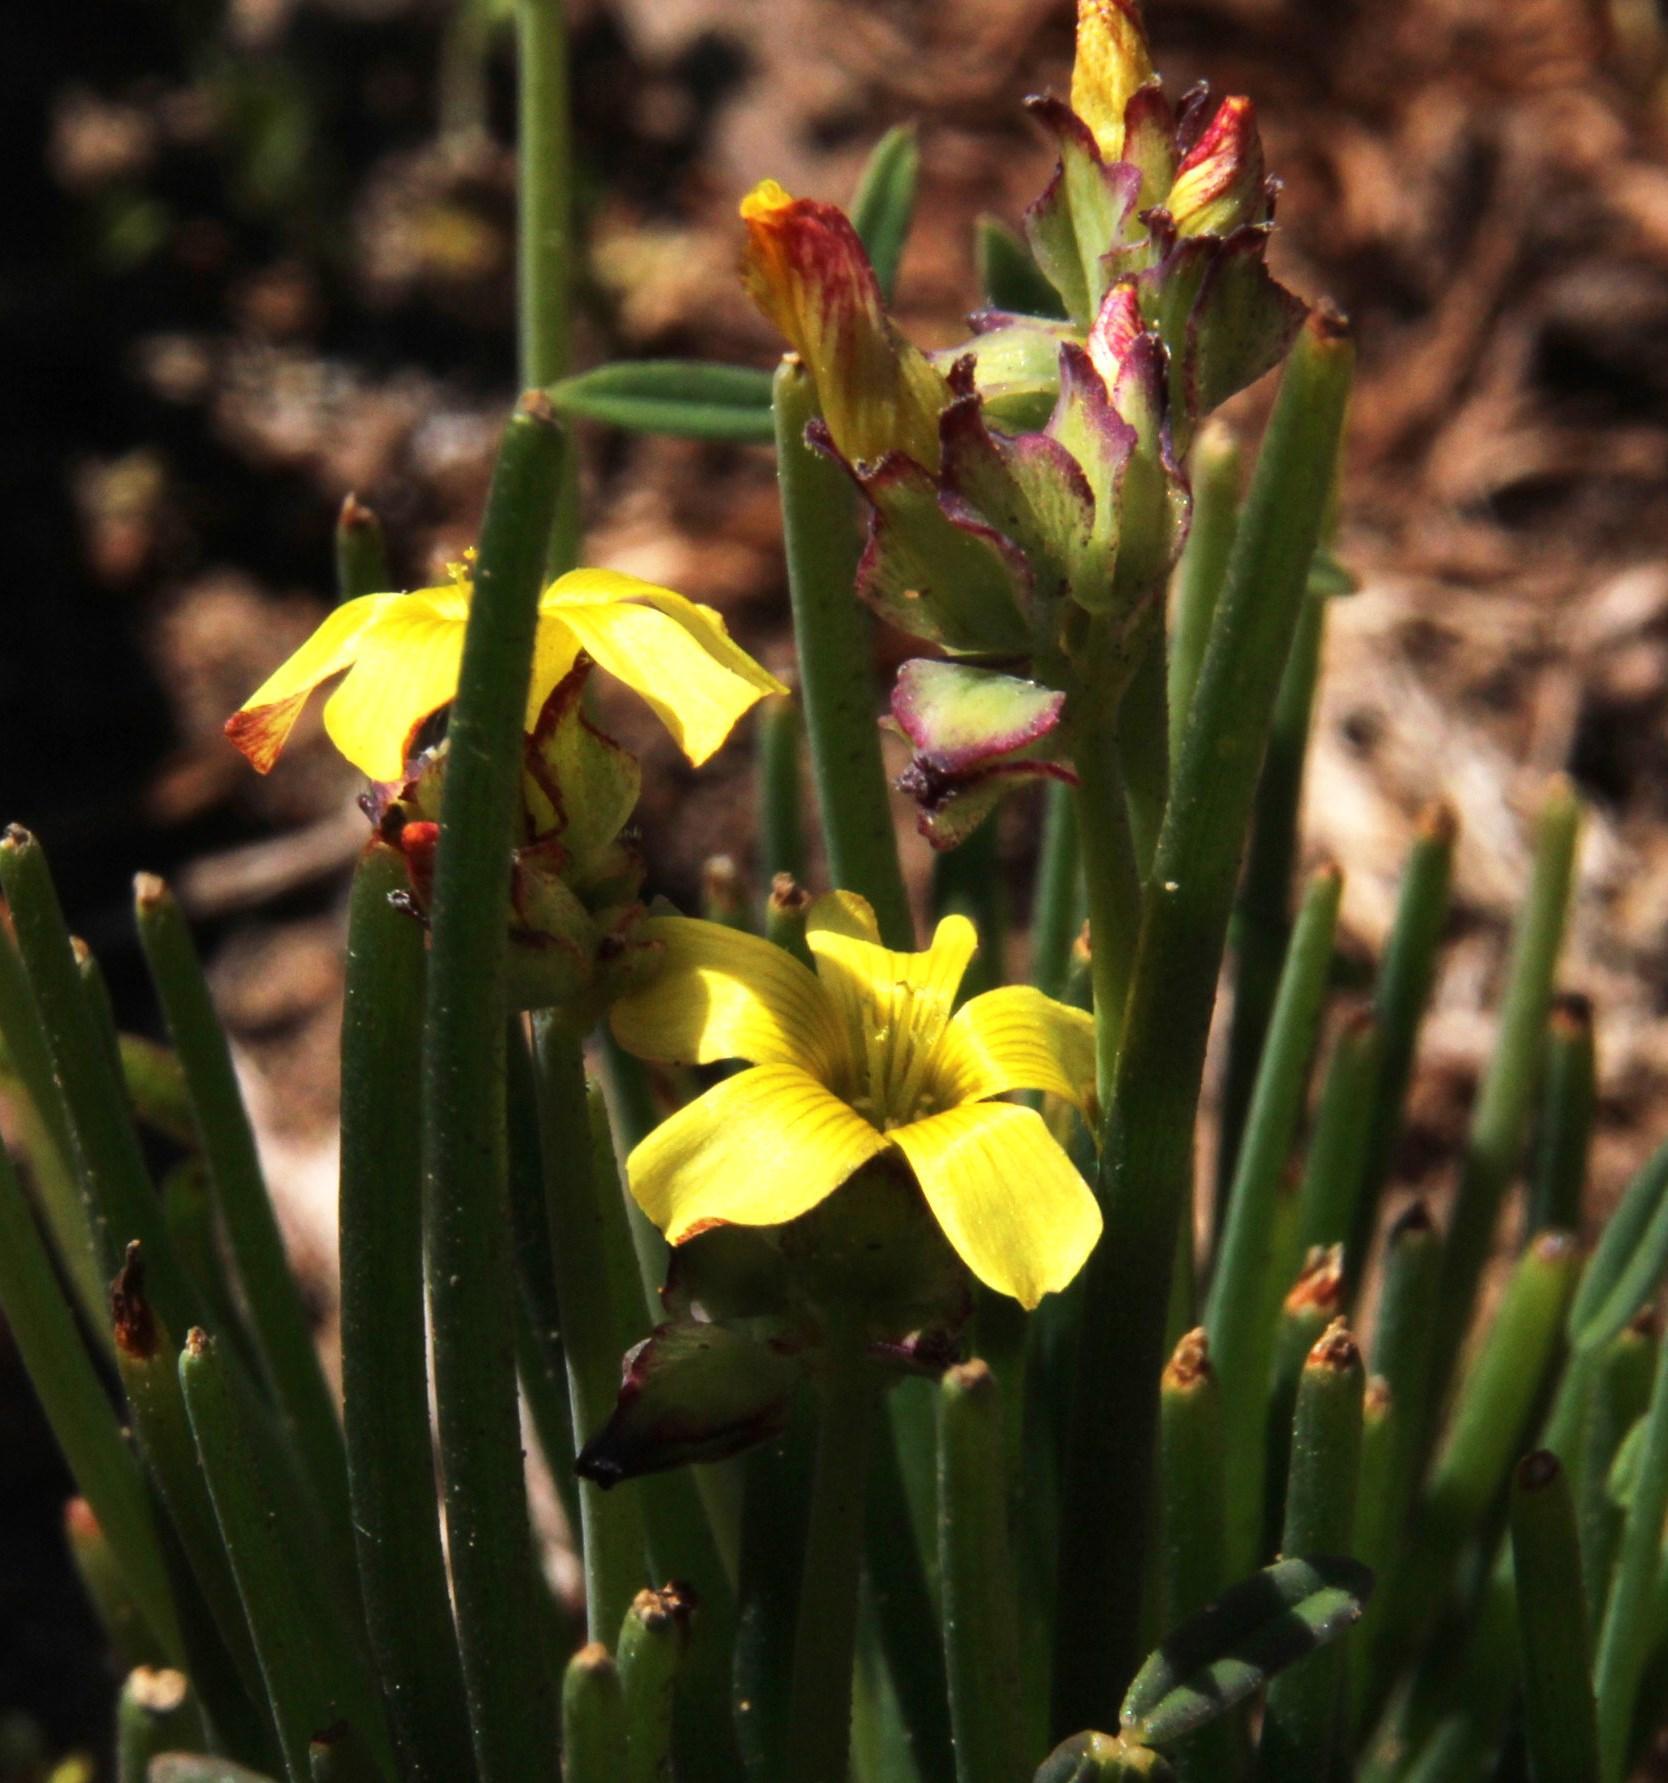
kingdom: Plantae
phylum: Tracheophyta
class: Magnoliopsida
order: Oxalidales
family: Oxalidaceae
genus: Oxalis
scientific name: Oxalis tortuosa
